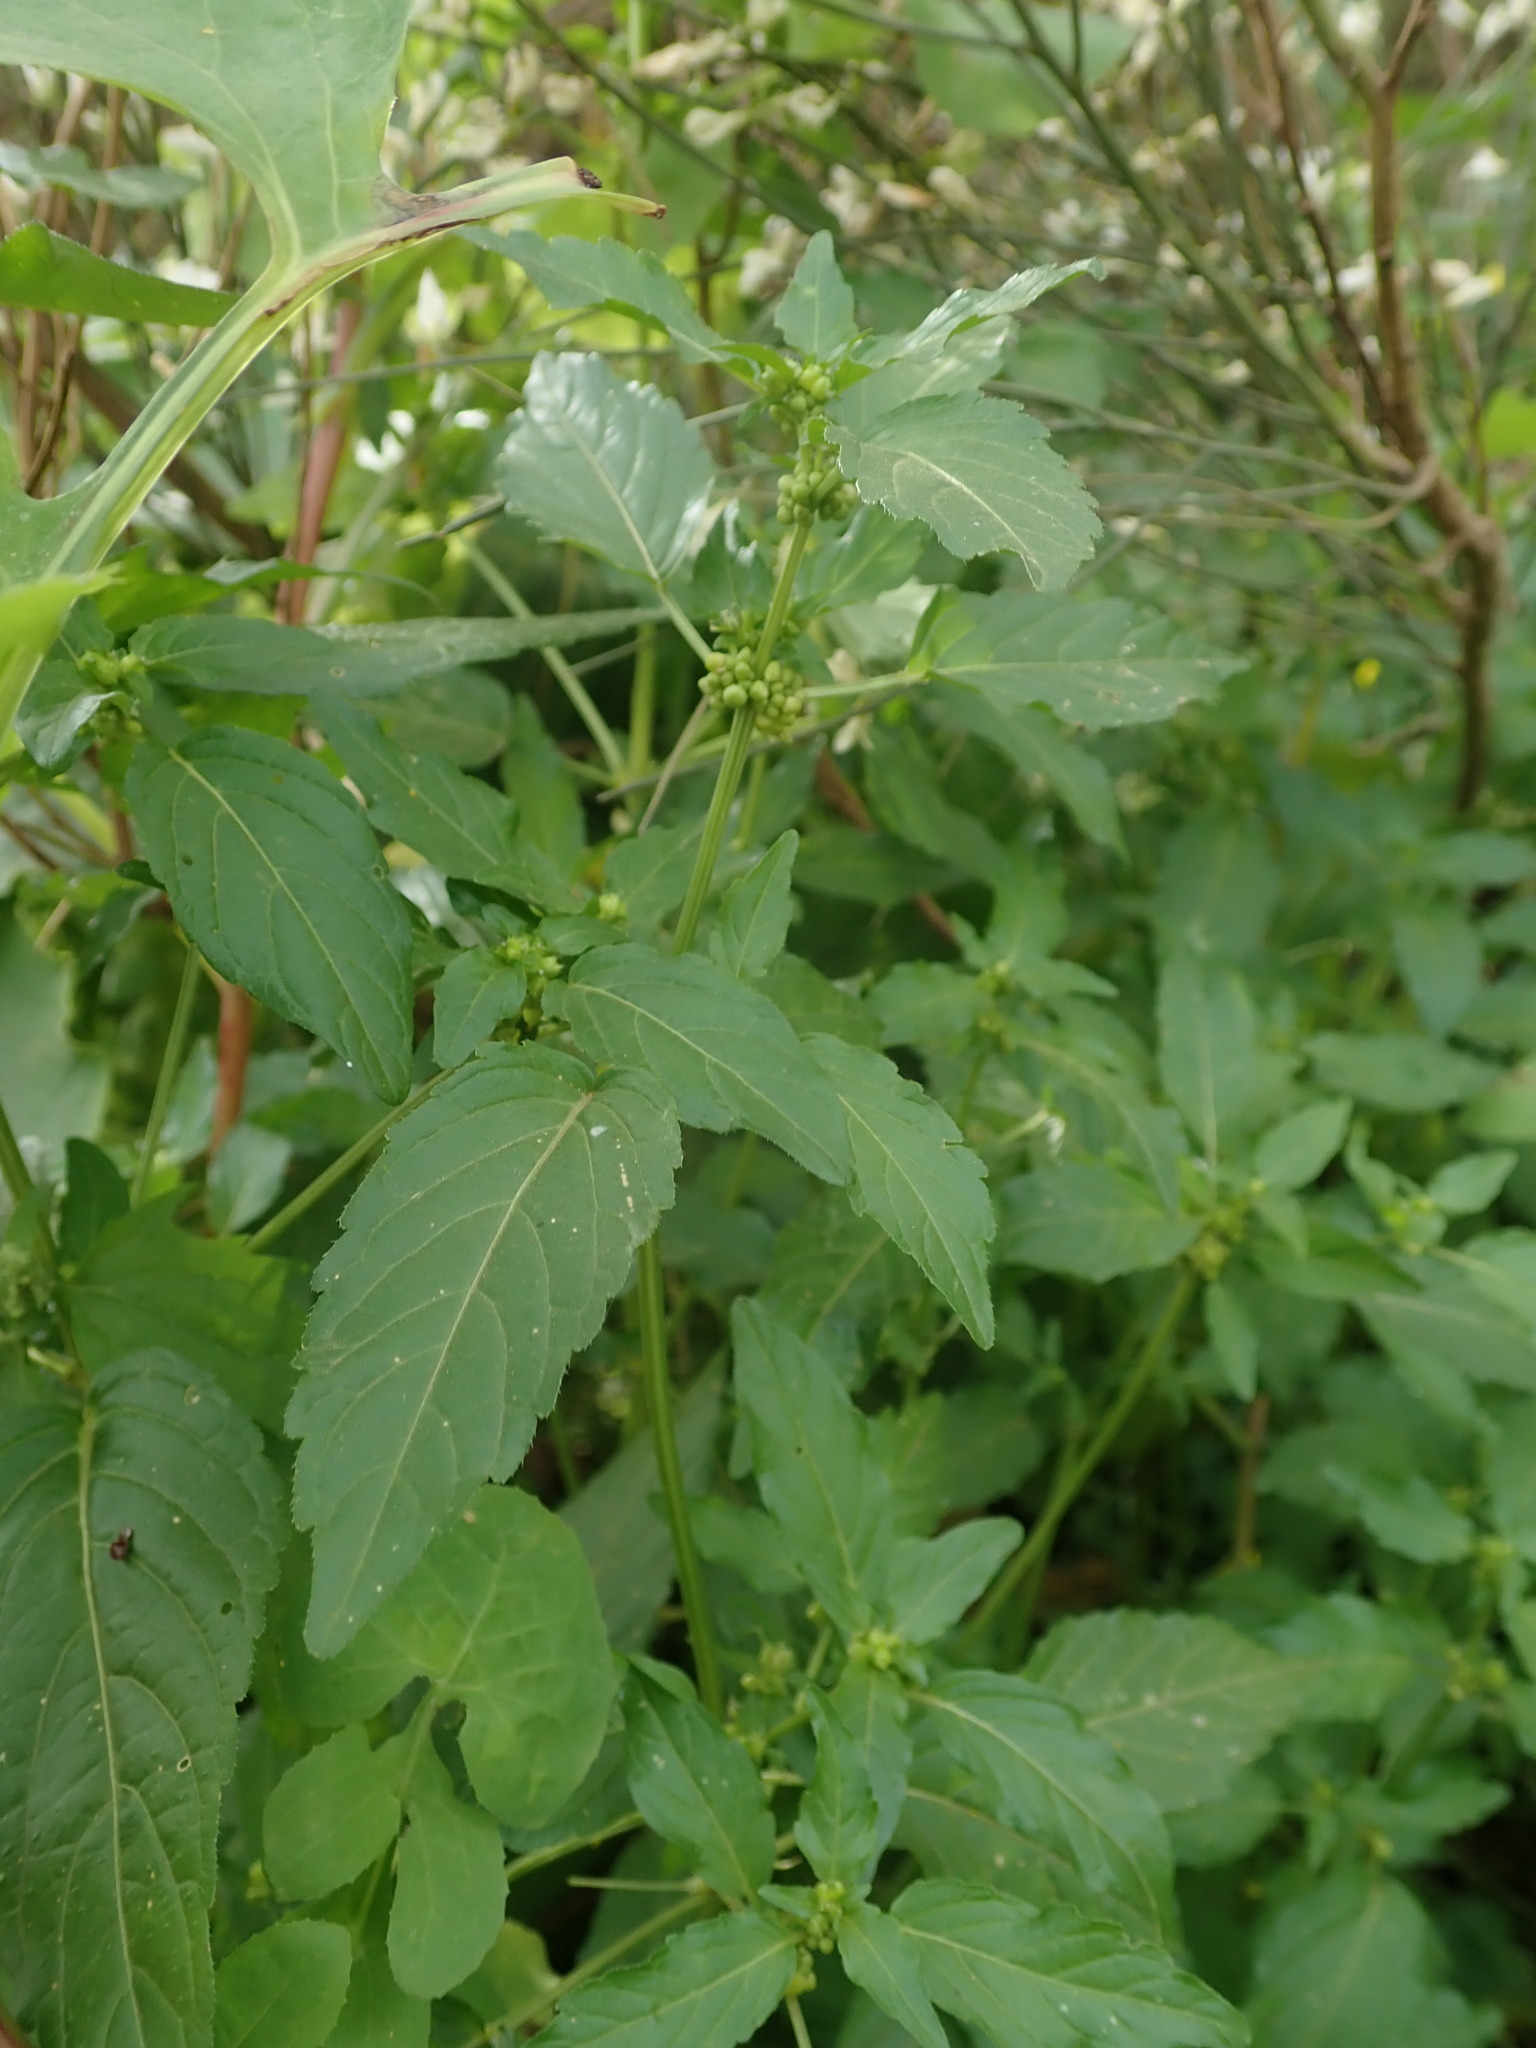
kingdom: Plantae
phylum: Tracheophyta
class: Magnoliopsida
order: Malpighiales
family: Euphorbiaceae
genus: Mercurialis
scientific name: Mercurialis annua
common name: Annual mercury
